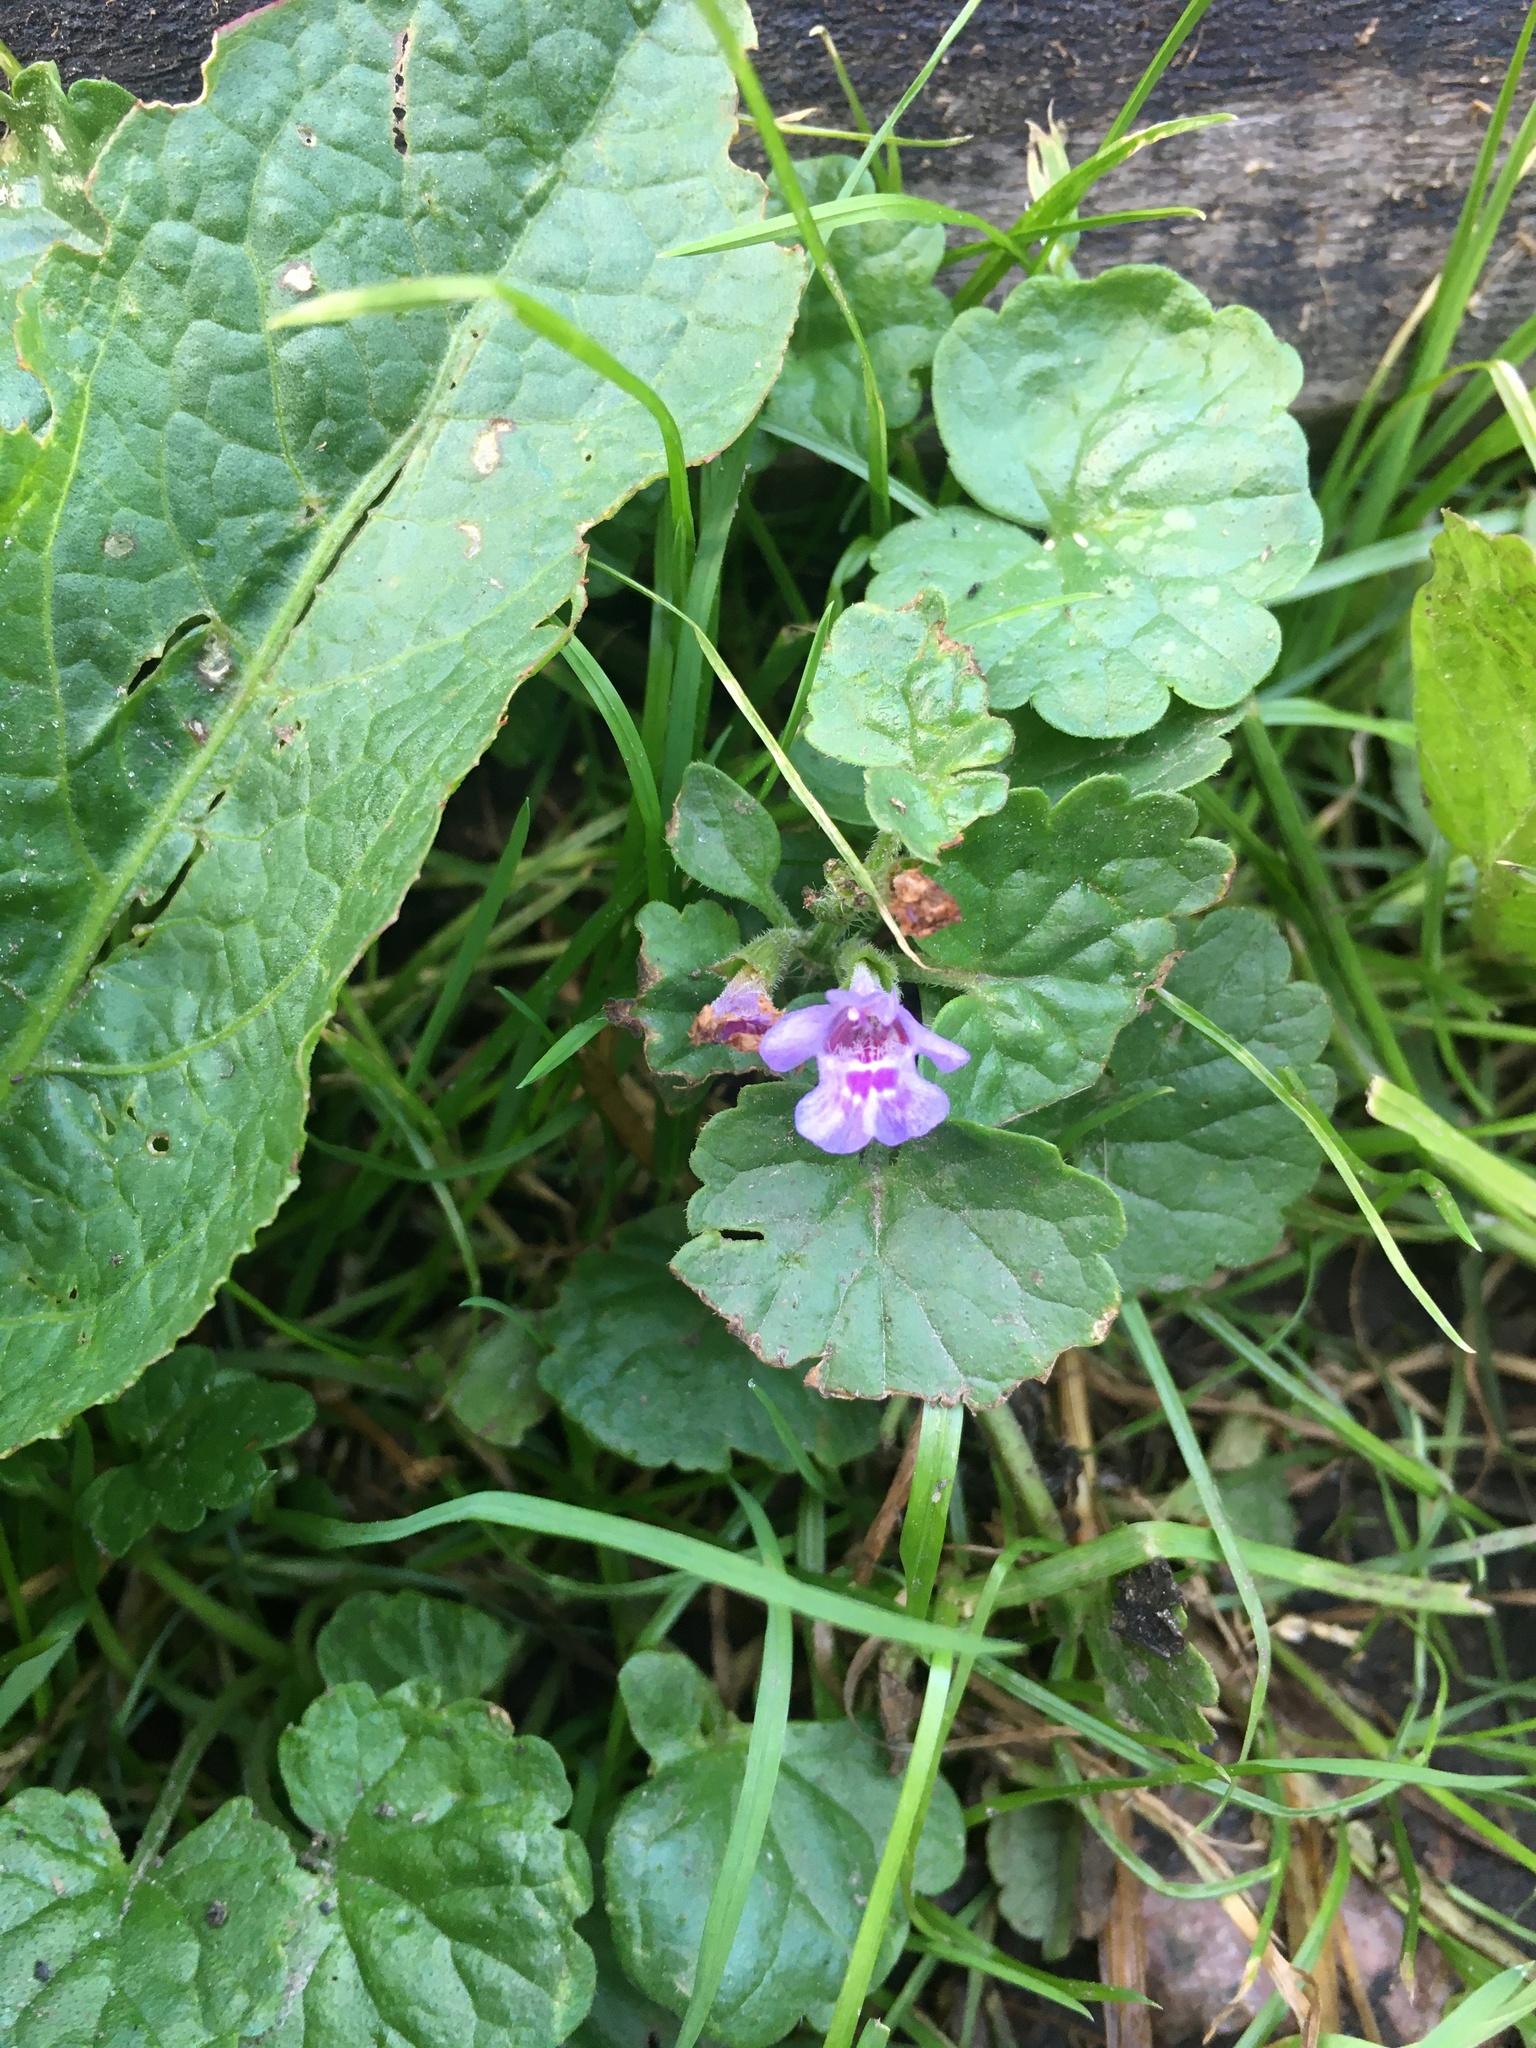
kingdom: Plantae
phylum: Tracheophyta
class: Magnoliopsida
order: Lamiales
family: Lamiaceae
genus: Glechoma
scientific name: Glechoma hederacea
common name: Ground ivy
